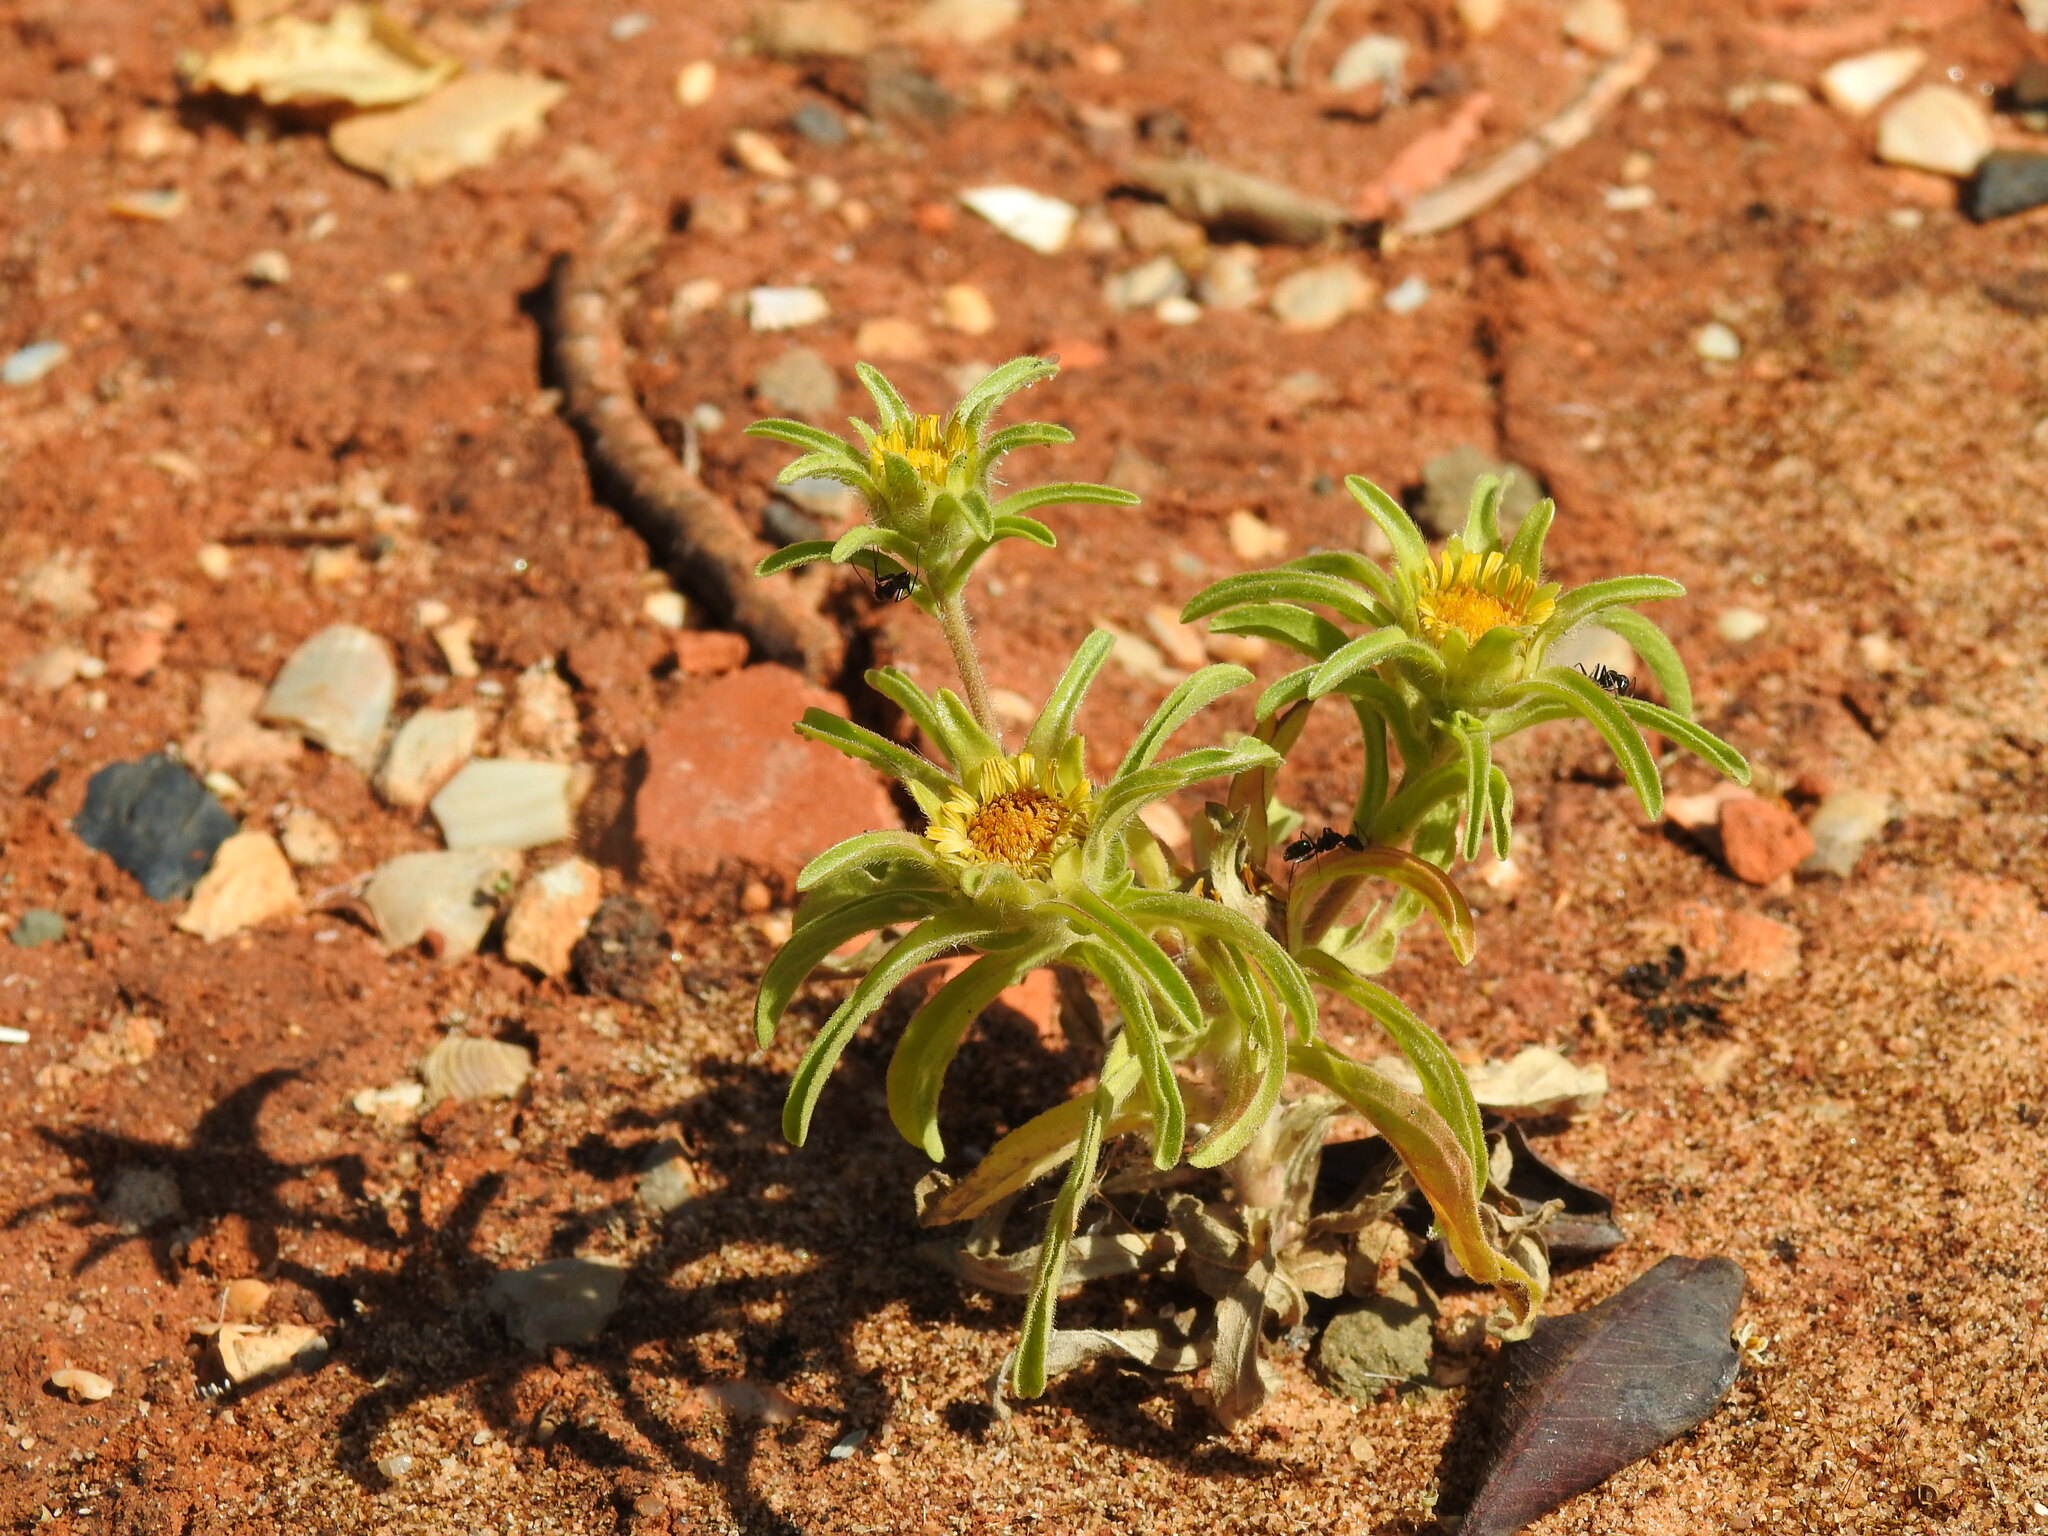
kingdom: Plantae
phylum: Tracheophyta
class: Magnoliopsida
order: Asterales
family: Asteraceae
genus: Asteriscus
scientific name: Asteriscus aquaticus
